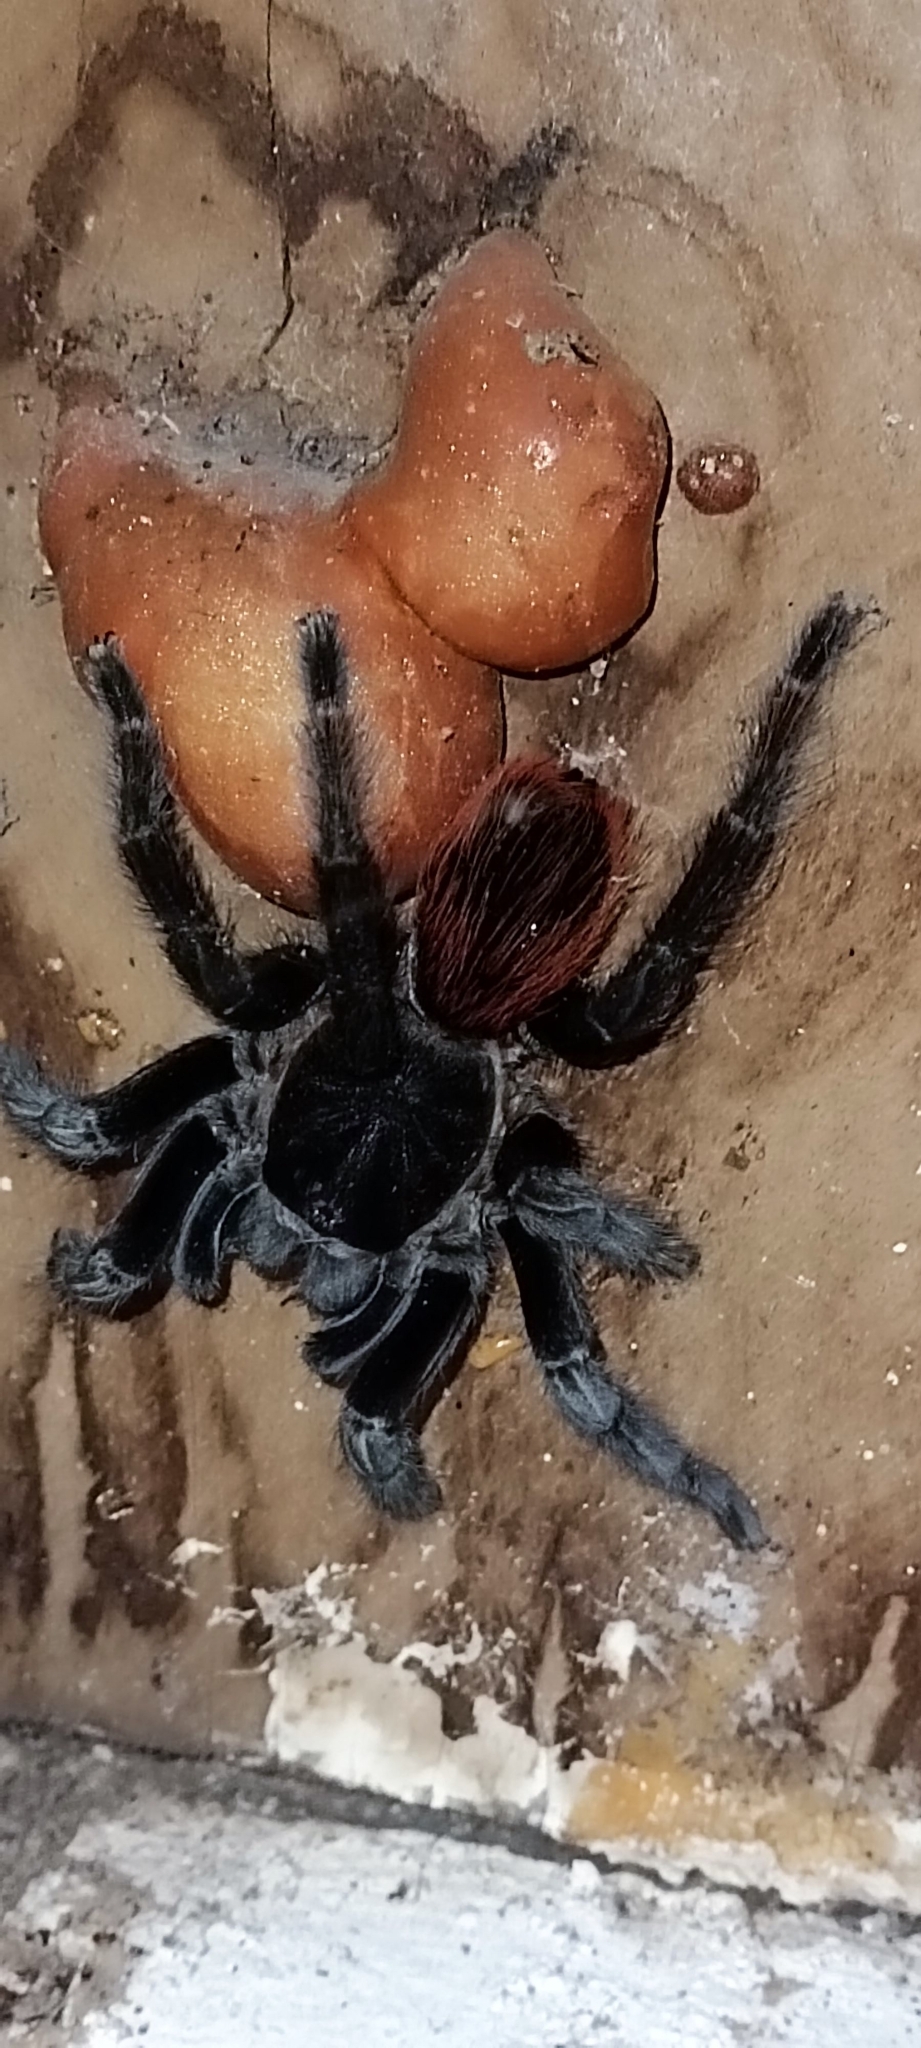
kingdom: Animalia
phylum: Arthropoda
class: Arachnida
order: Araneae
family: Theraphosidae
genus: Tliltocatl
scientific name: Tliltocatl vagans
